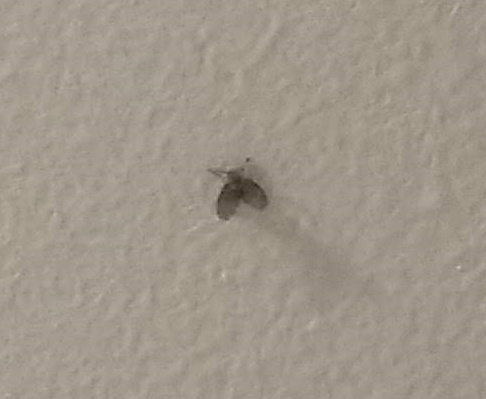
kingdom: Animalia
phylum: Arthropoda
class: Insecta
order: Diptera
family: Psychodidae
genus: Clogmia
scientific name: Clogmia albipunctatus
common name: White-spotted moth fly
